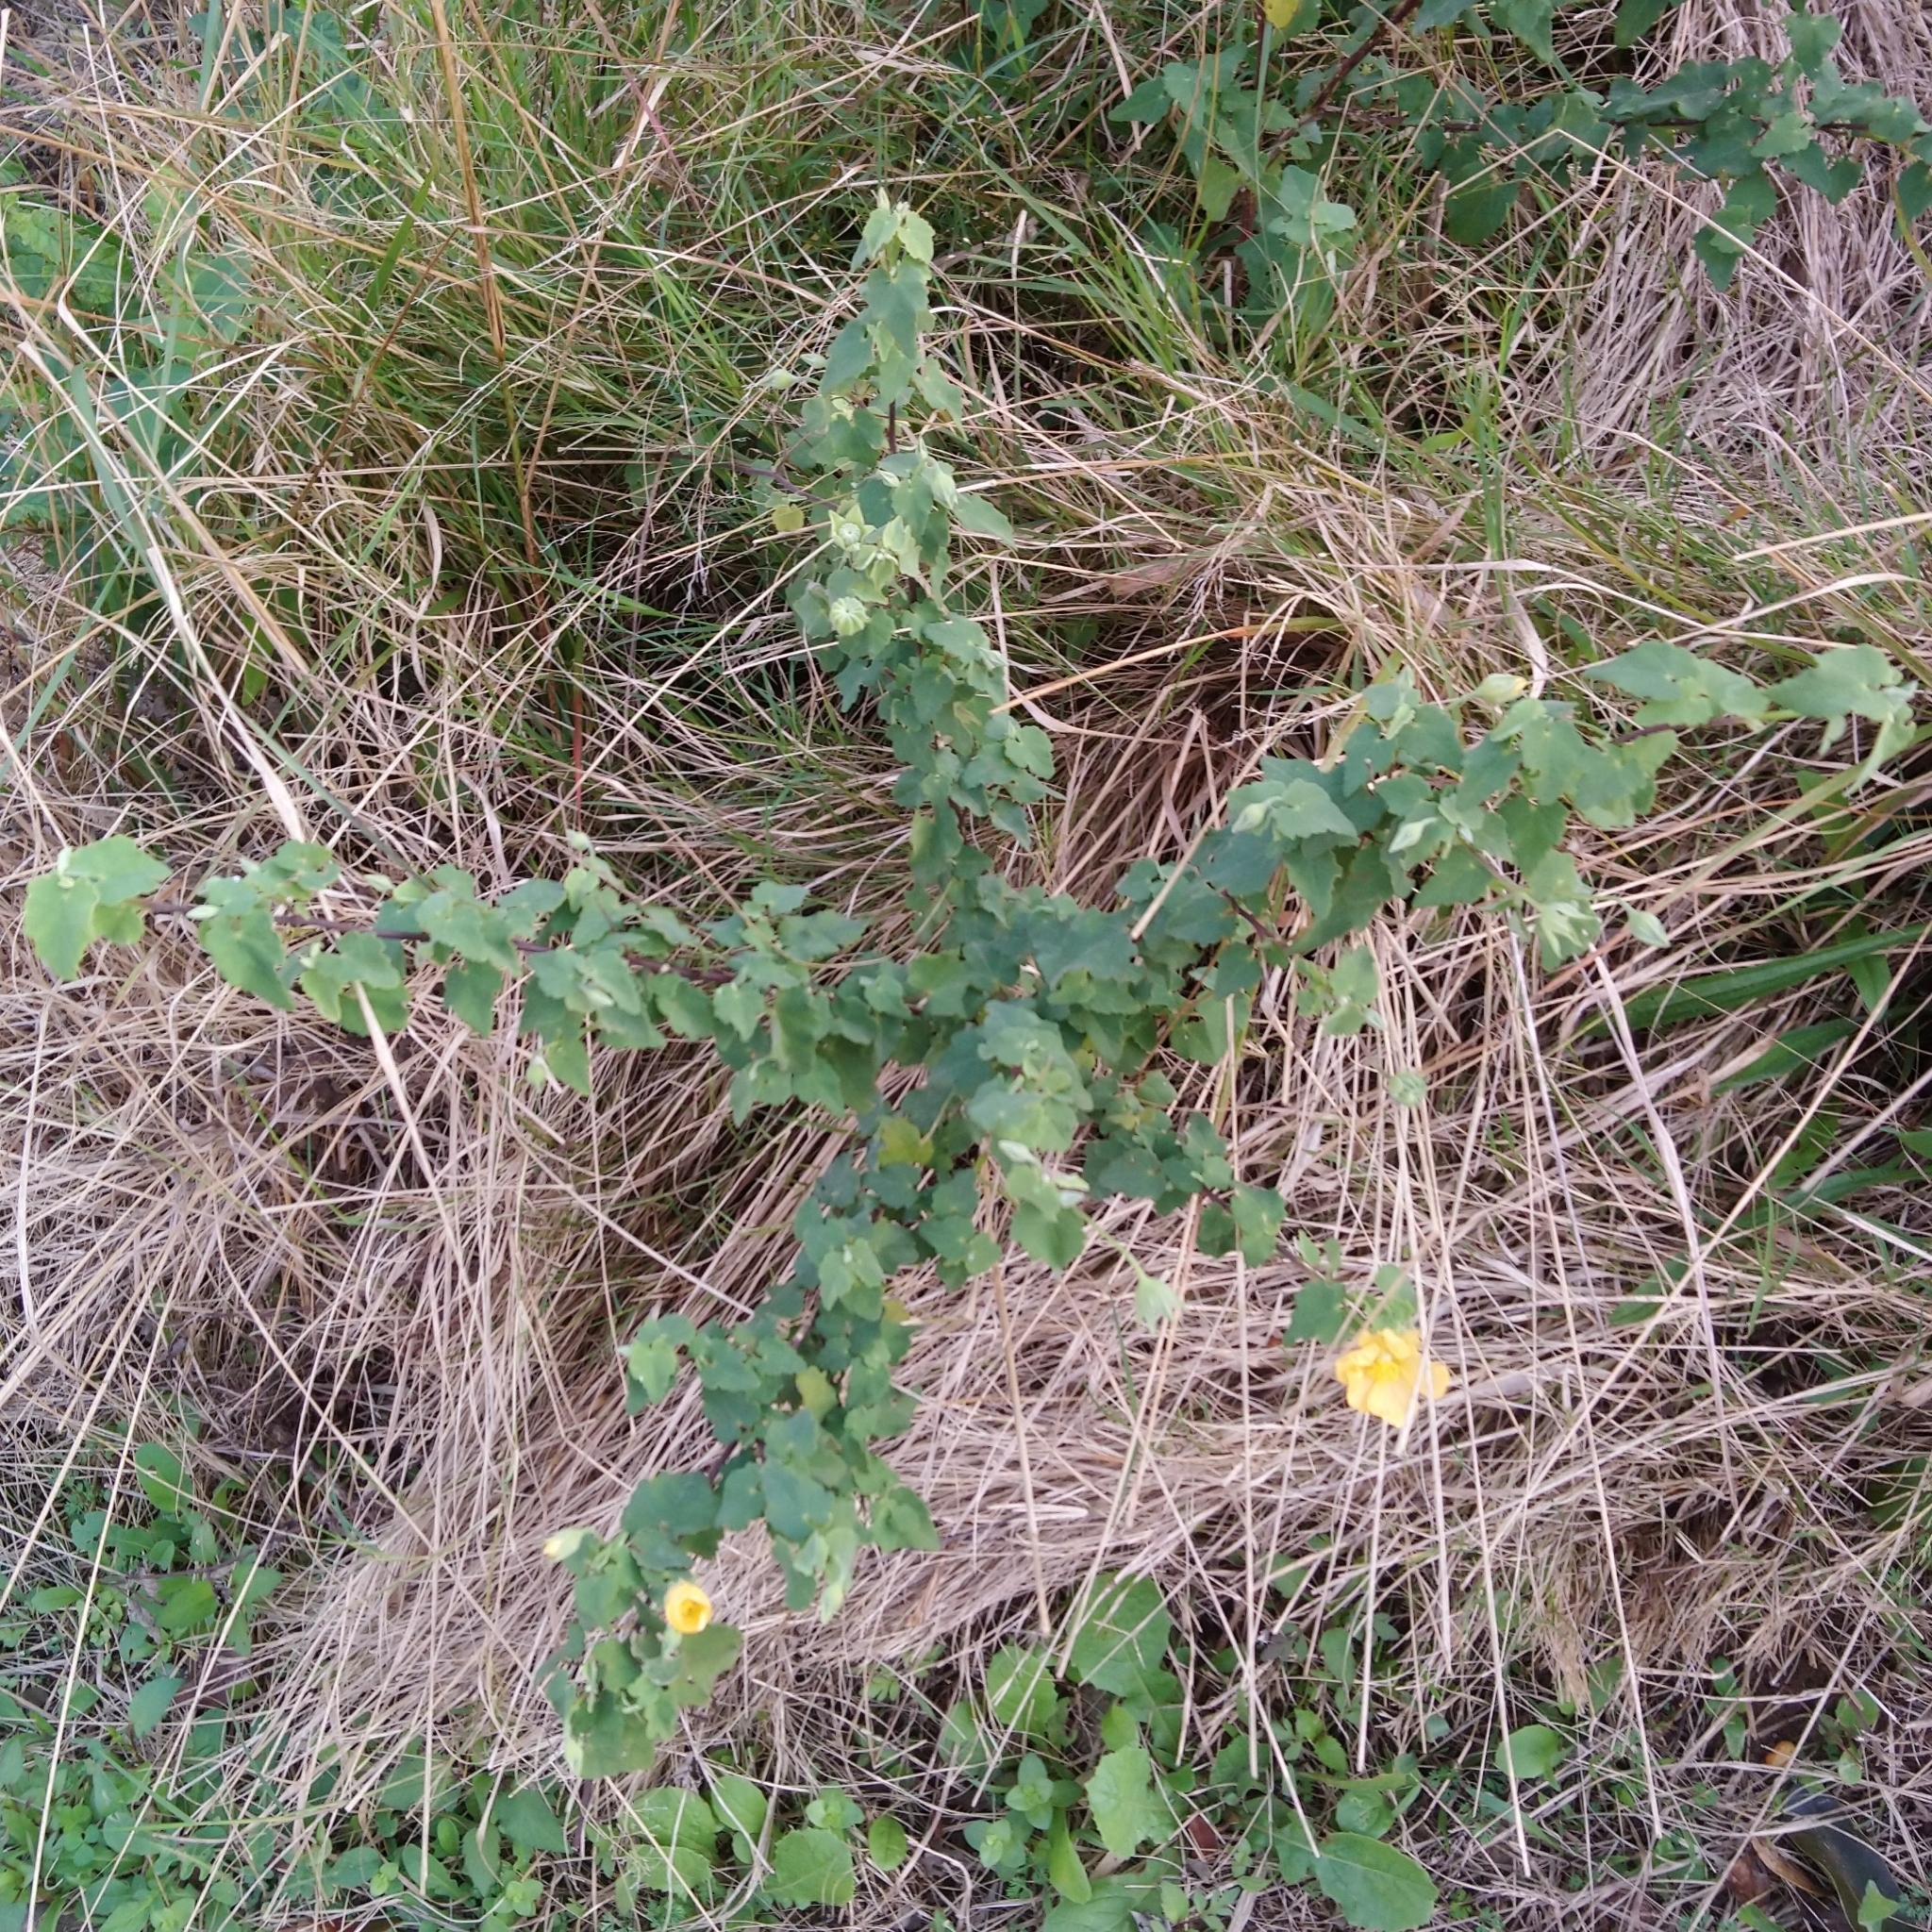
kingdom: Plantae
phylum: Tracheophyta
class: Magnoliopsida
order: Malvales
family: Malvaceae
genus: Abutilon
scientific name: Abutilon sonneratianum
